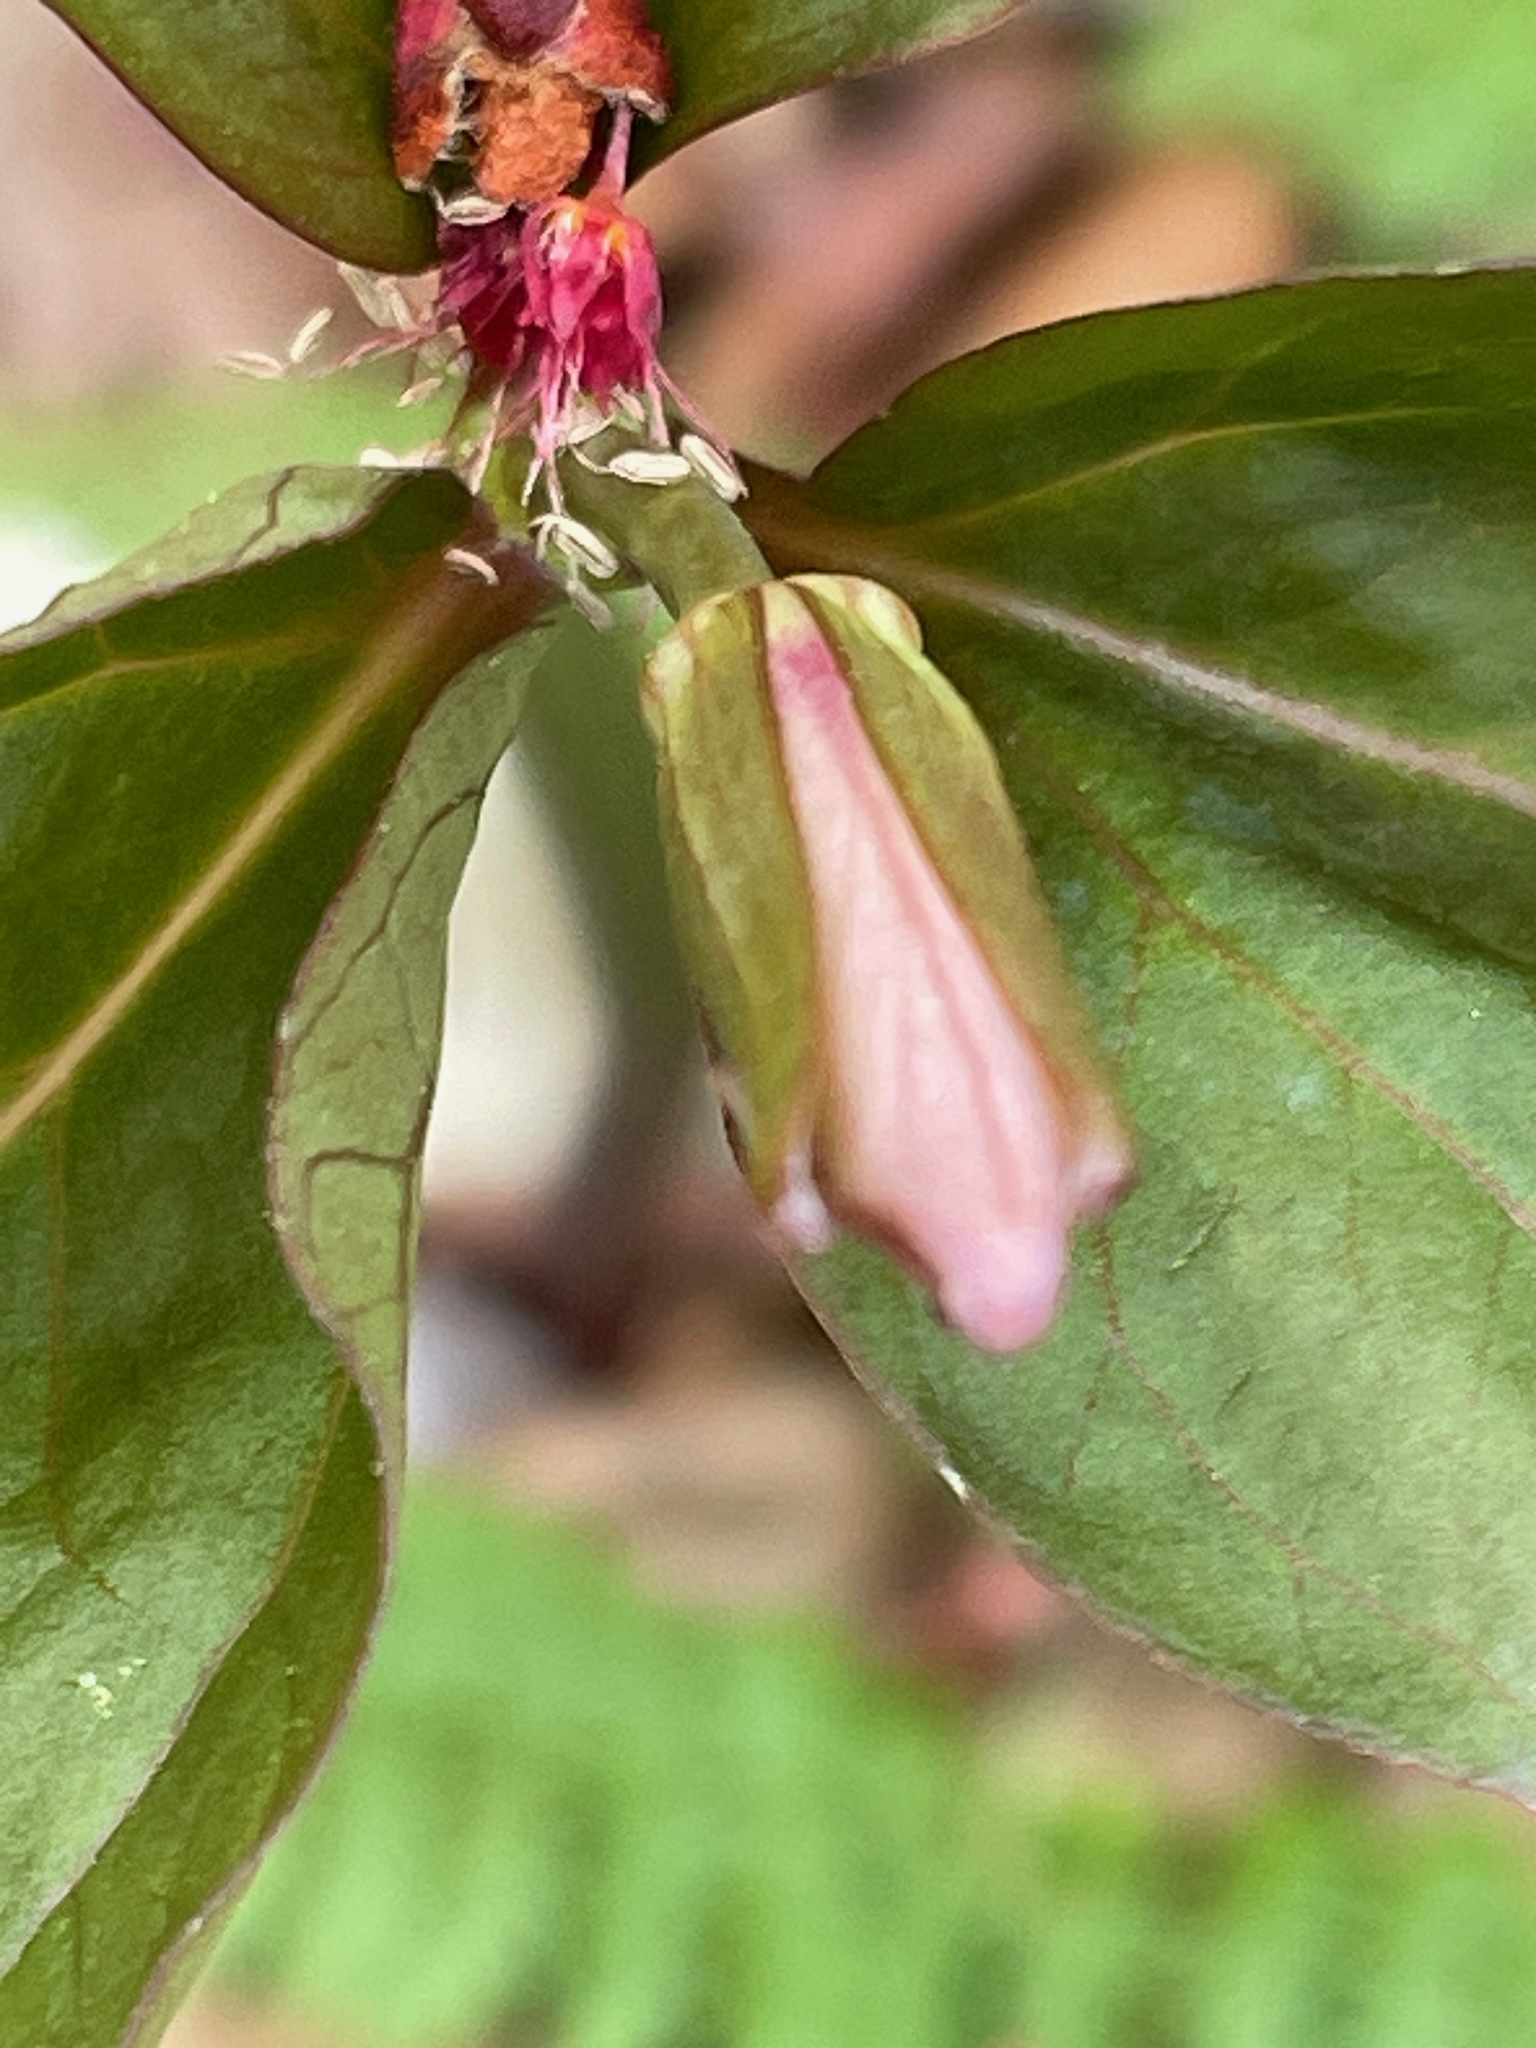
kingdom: Plantae
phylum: Tracheophyta
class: Liliopsida
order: Liliales
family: Melanthiaceae
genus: Trillium
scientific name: Trillium undulatum
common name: Paint trillium
